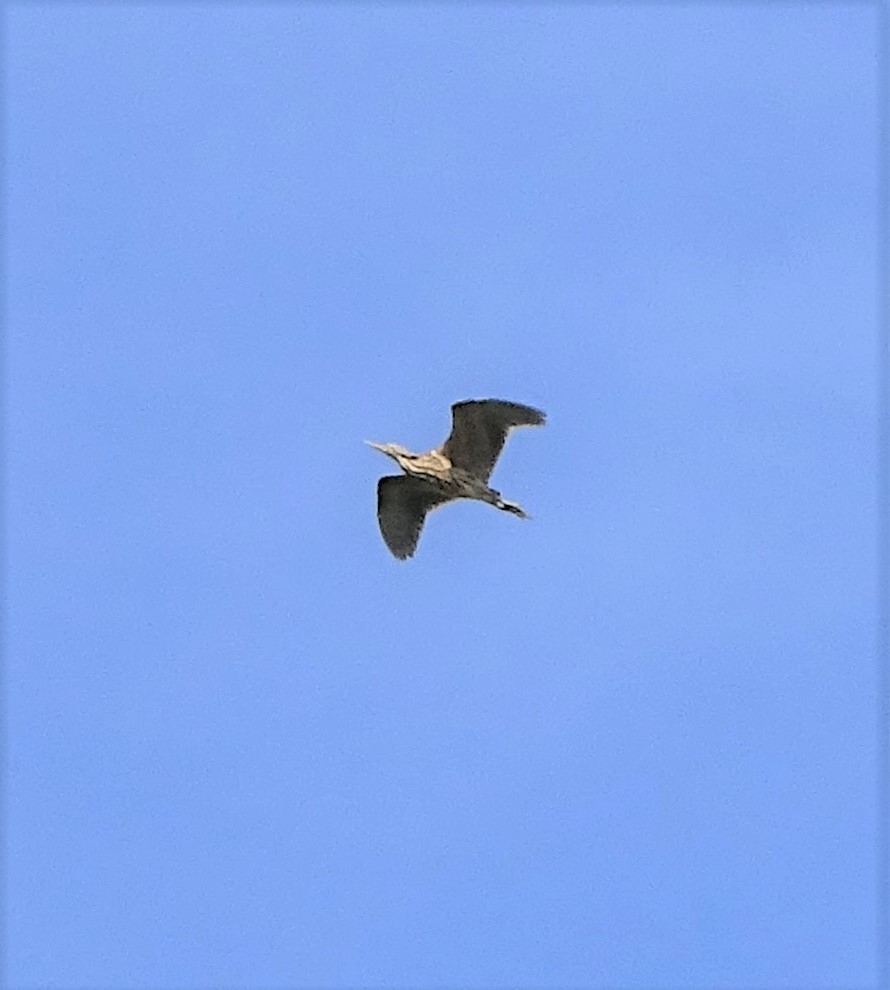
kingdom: Animalia
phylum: Chordata
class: Aves
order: Pelecaniformes
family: Ardeidae
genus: Botaurus
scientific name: Botaurus lentiginosus
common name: American bittern
